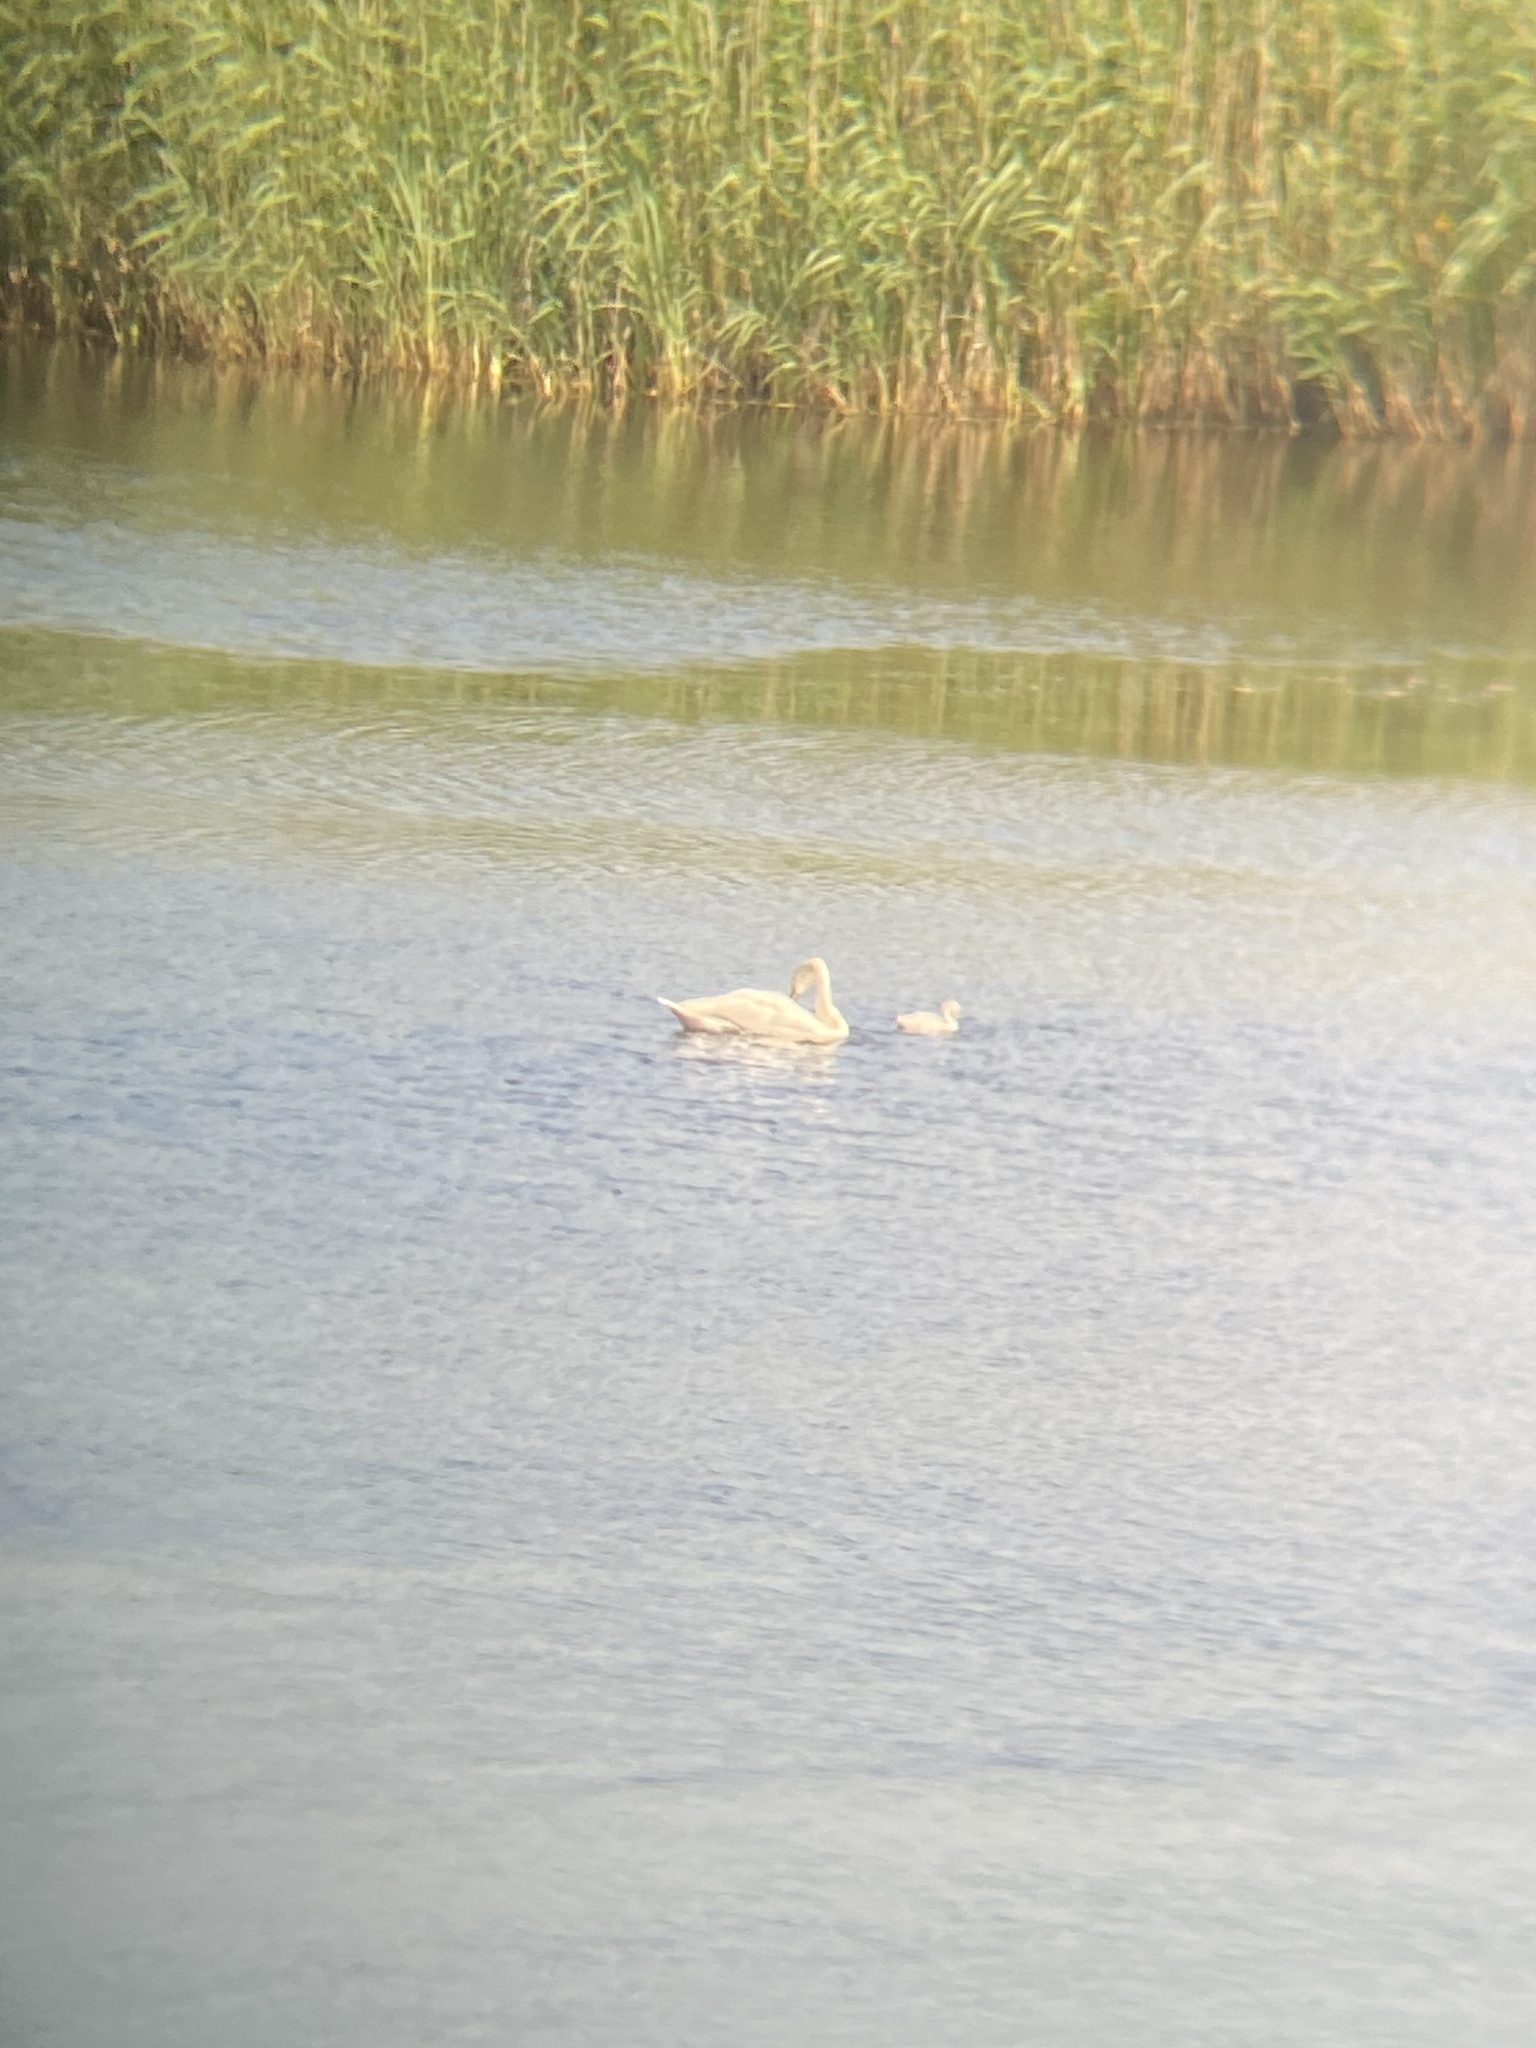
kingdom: Animalia
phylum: Chordata
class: Aves
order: Anseriformes
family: Anatidae
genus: Cygnus
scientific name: Cygnus cygnus
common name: Whooper swan
